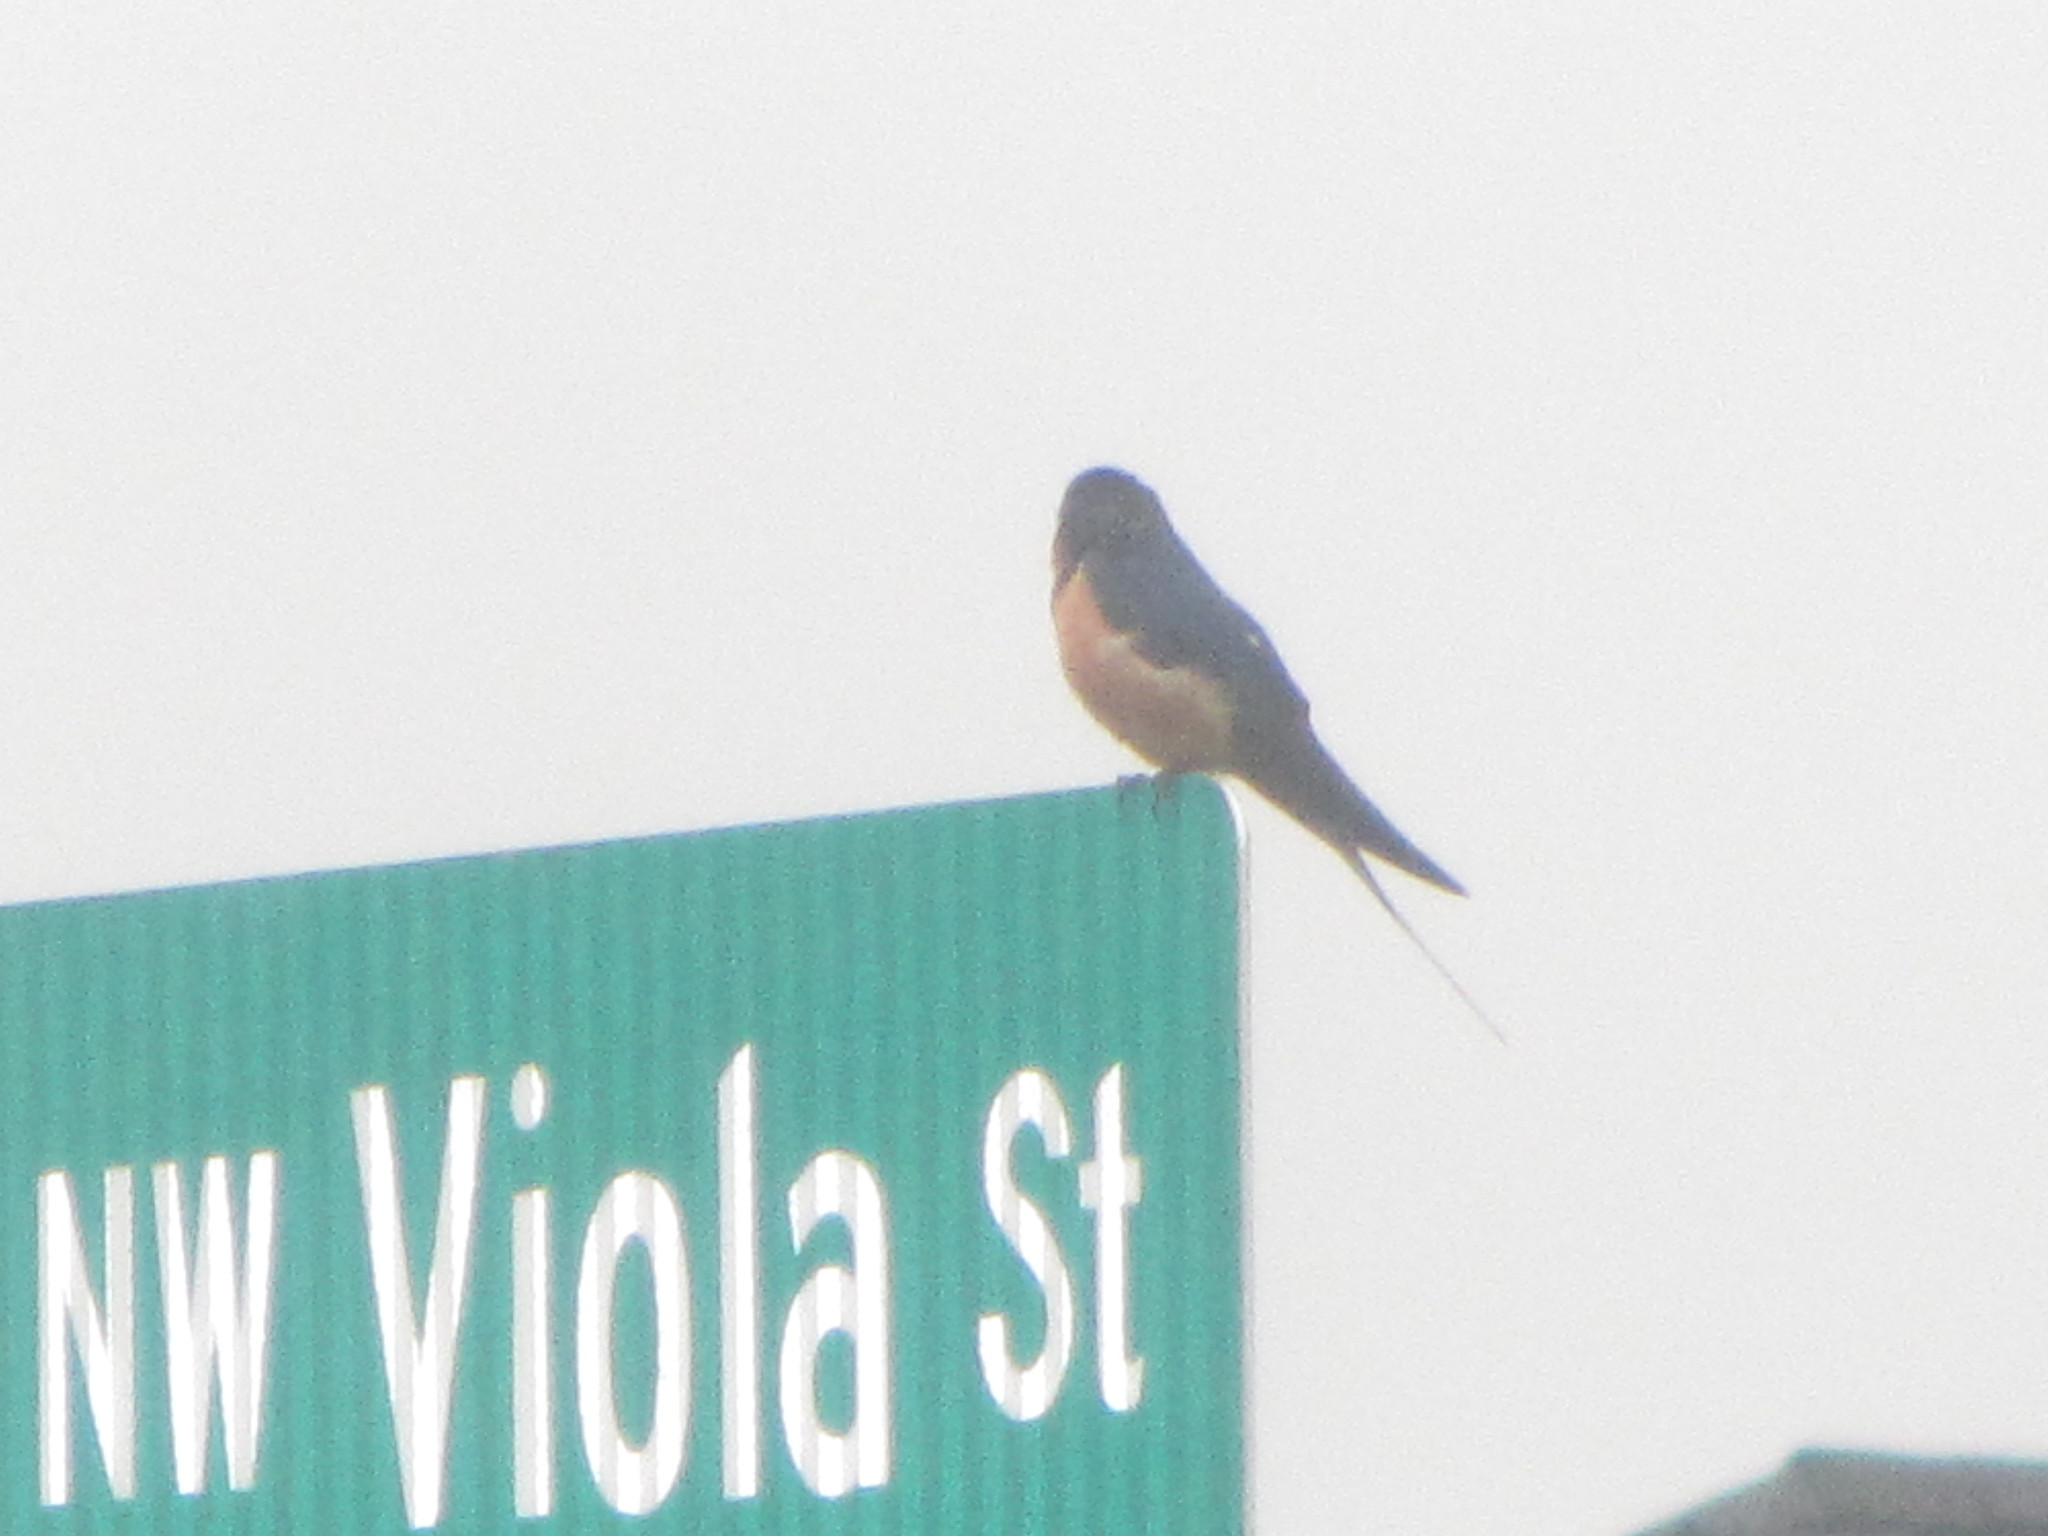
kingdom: Animalia
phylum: Chordata
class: Aves
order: Passeriformes
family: Hirundinidae
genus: Hirundo
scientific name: Hirundo rustica
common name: Barn swallow
